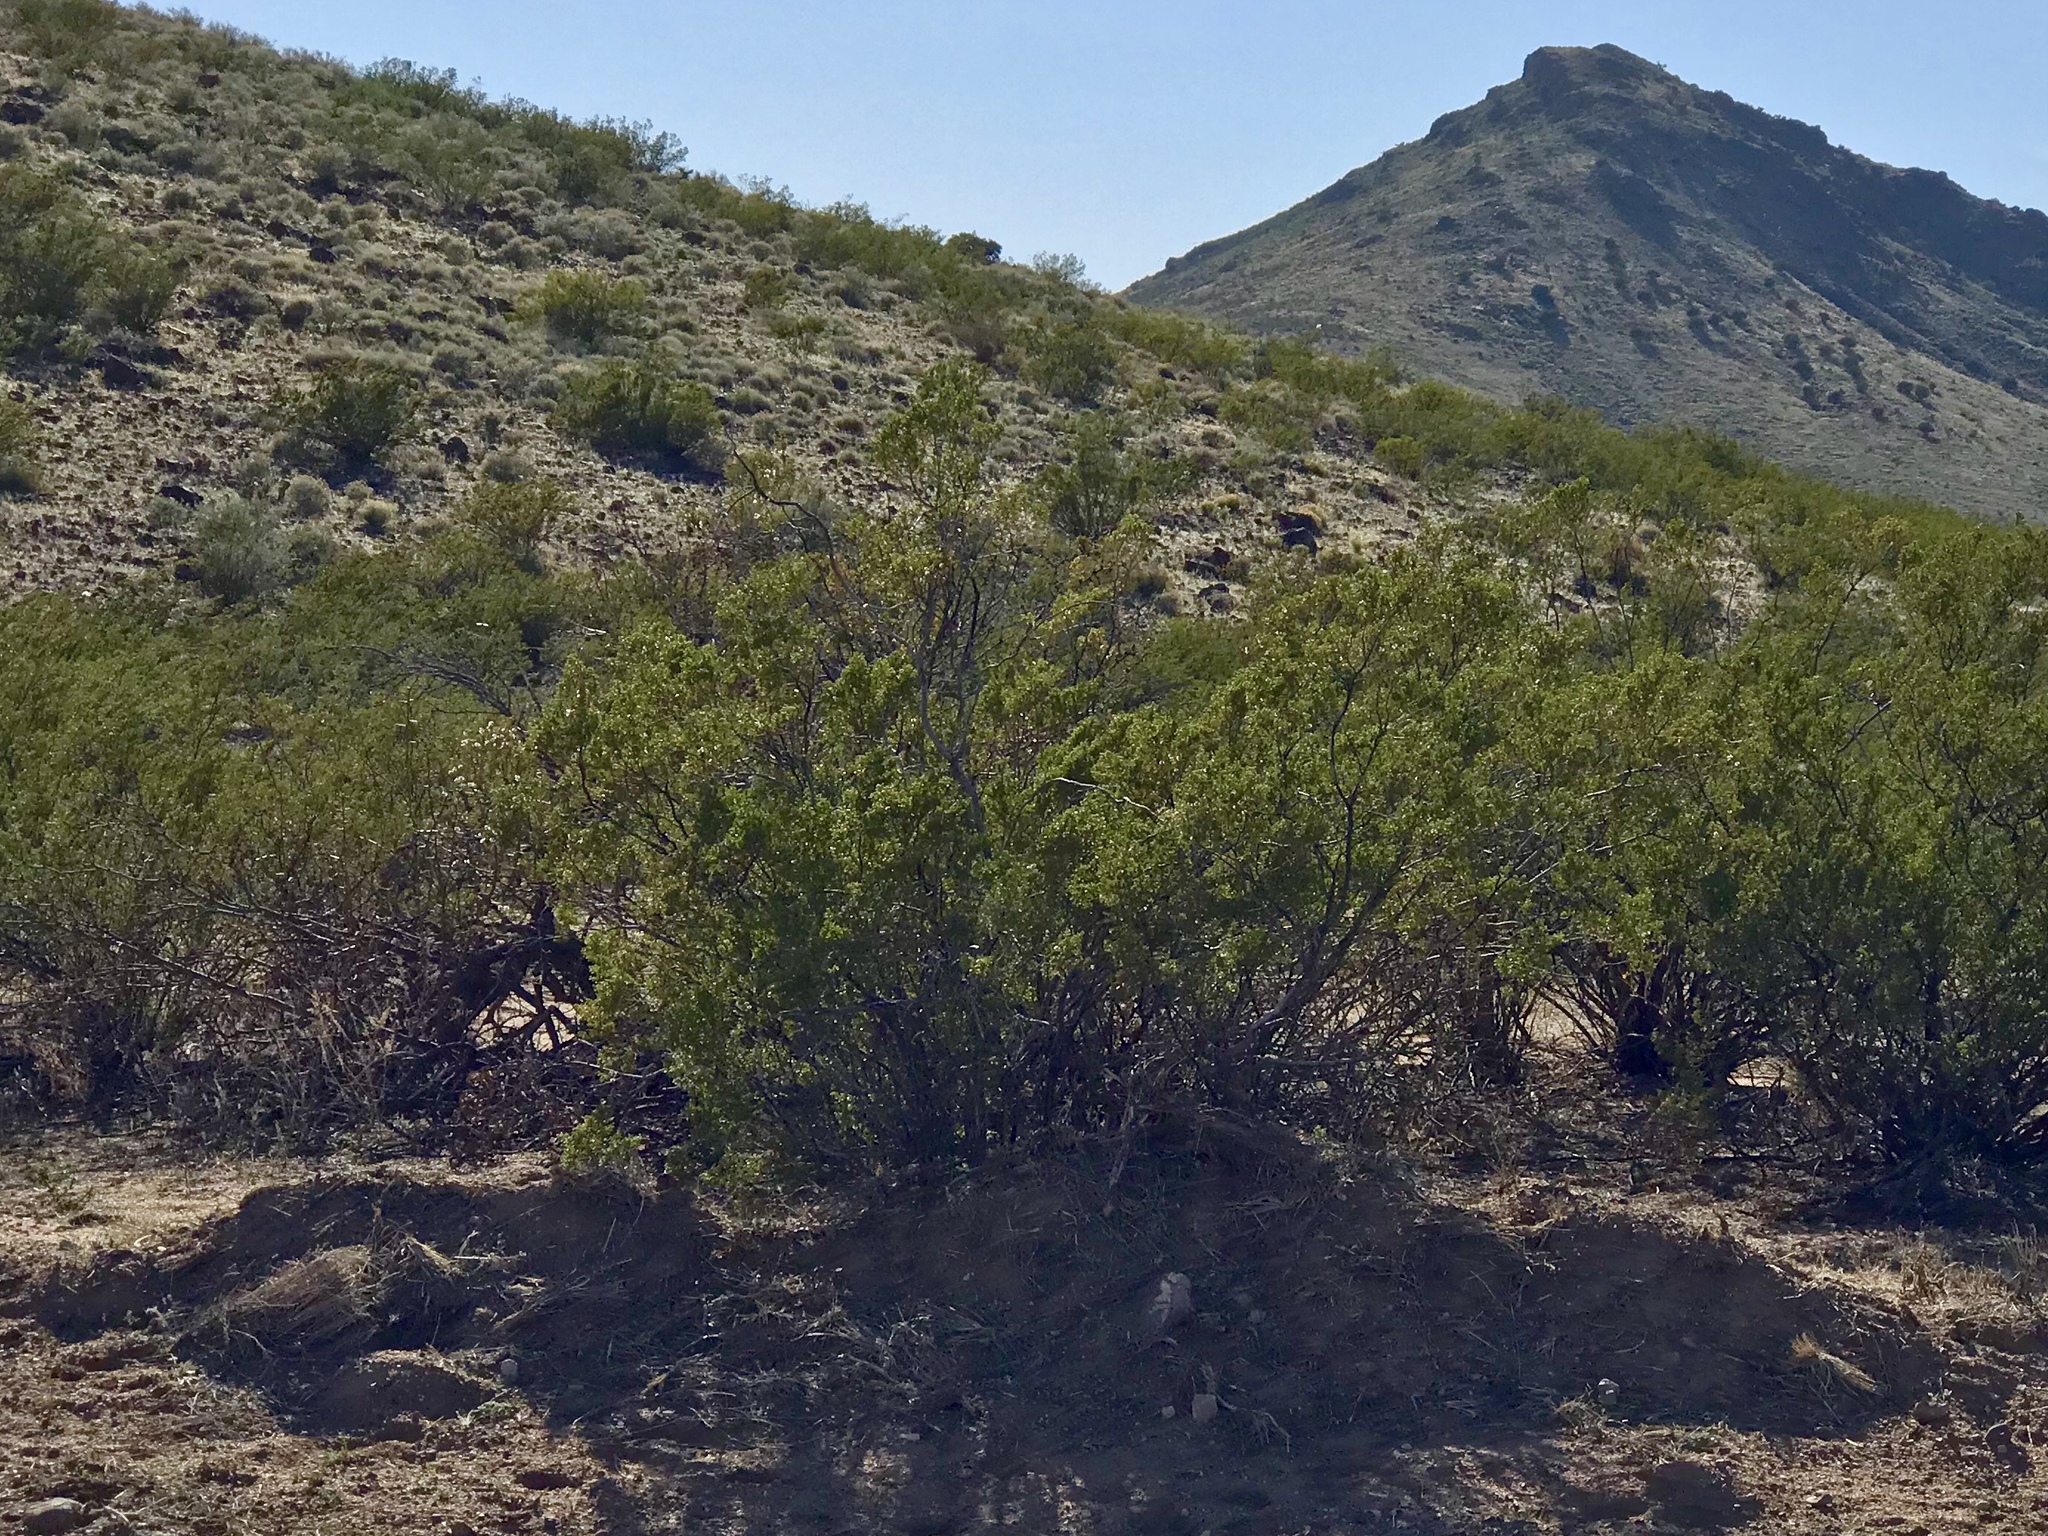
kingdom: Plantae
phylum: Tracheophyta
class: Magnoliopsida
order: Zygophyllales
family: Zygophyllaceae
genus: Larrea
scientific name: Larrea tridentata
